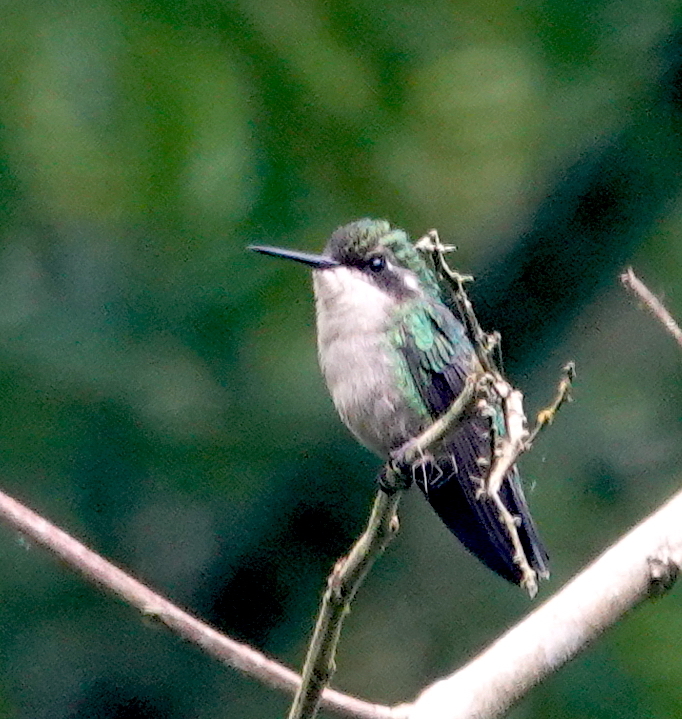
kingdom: Animalia
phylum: Chordata
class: Aves
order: Apodiformes
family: Trochilidae
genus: Chlorostilbon
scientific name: Chlorostilbon melanorhynchus
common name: Western emerald
